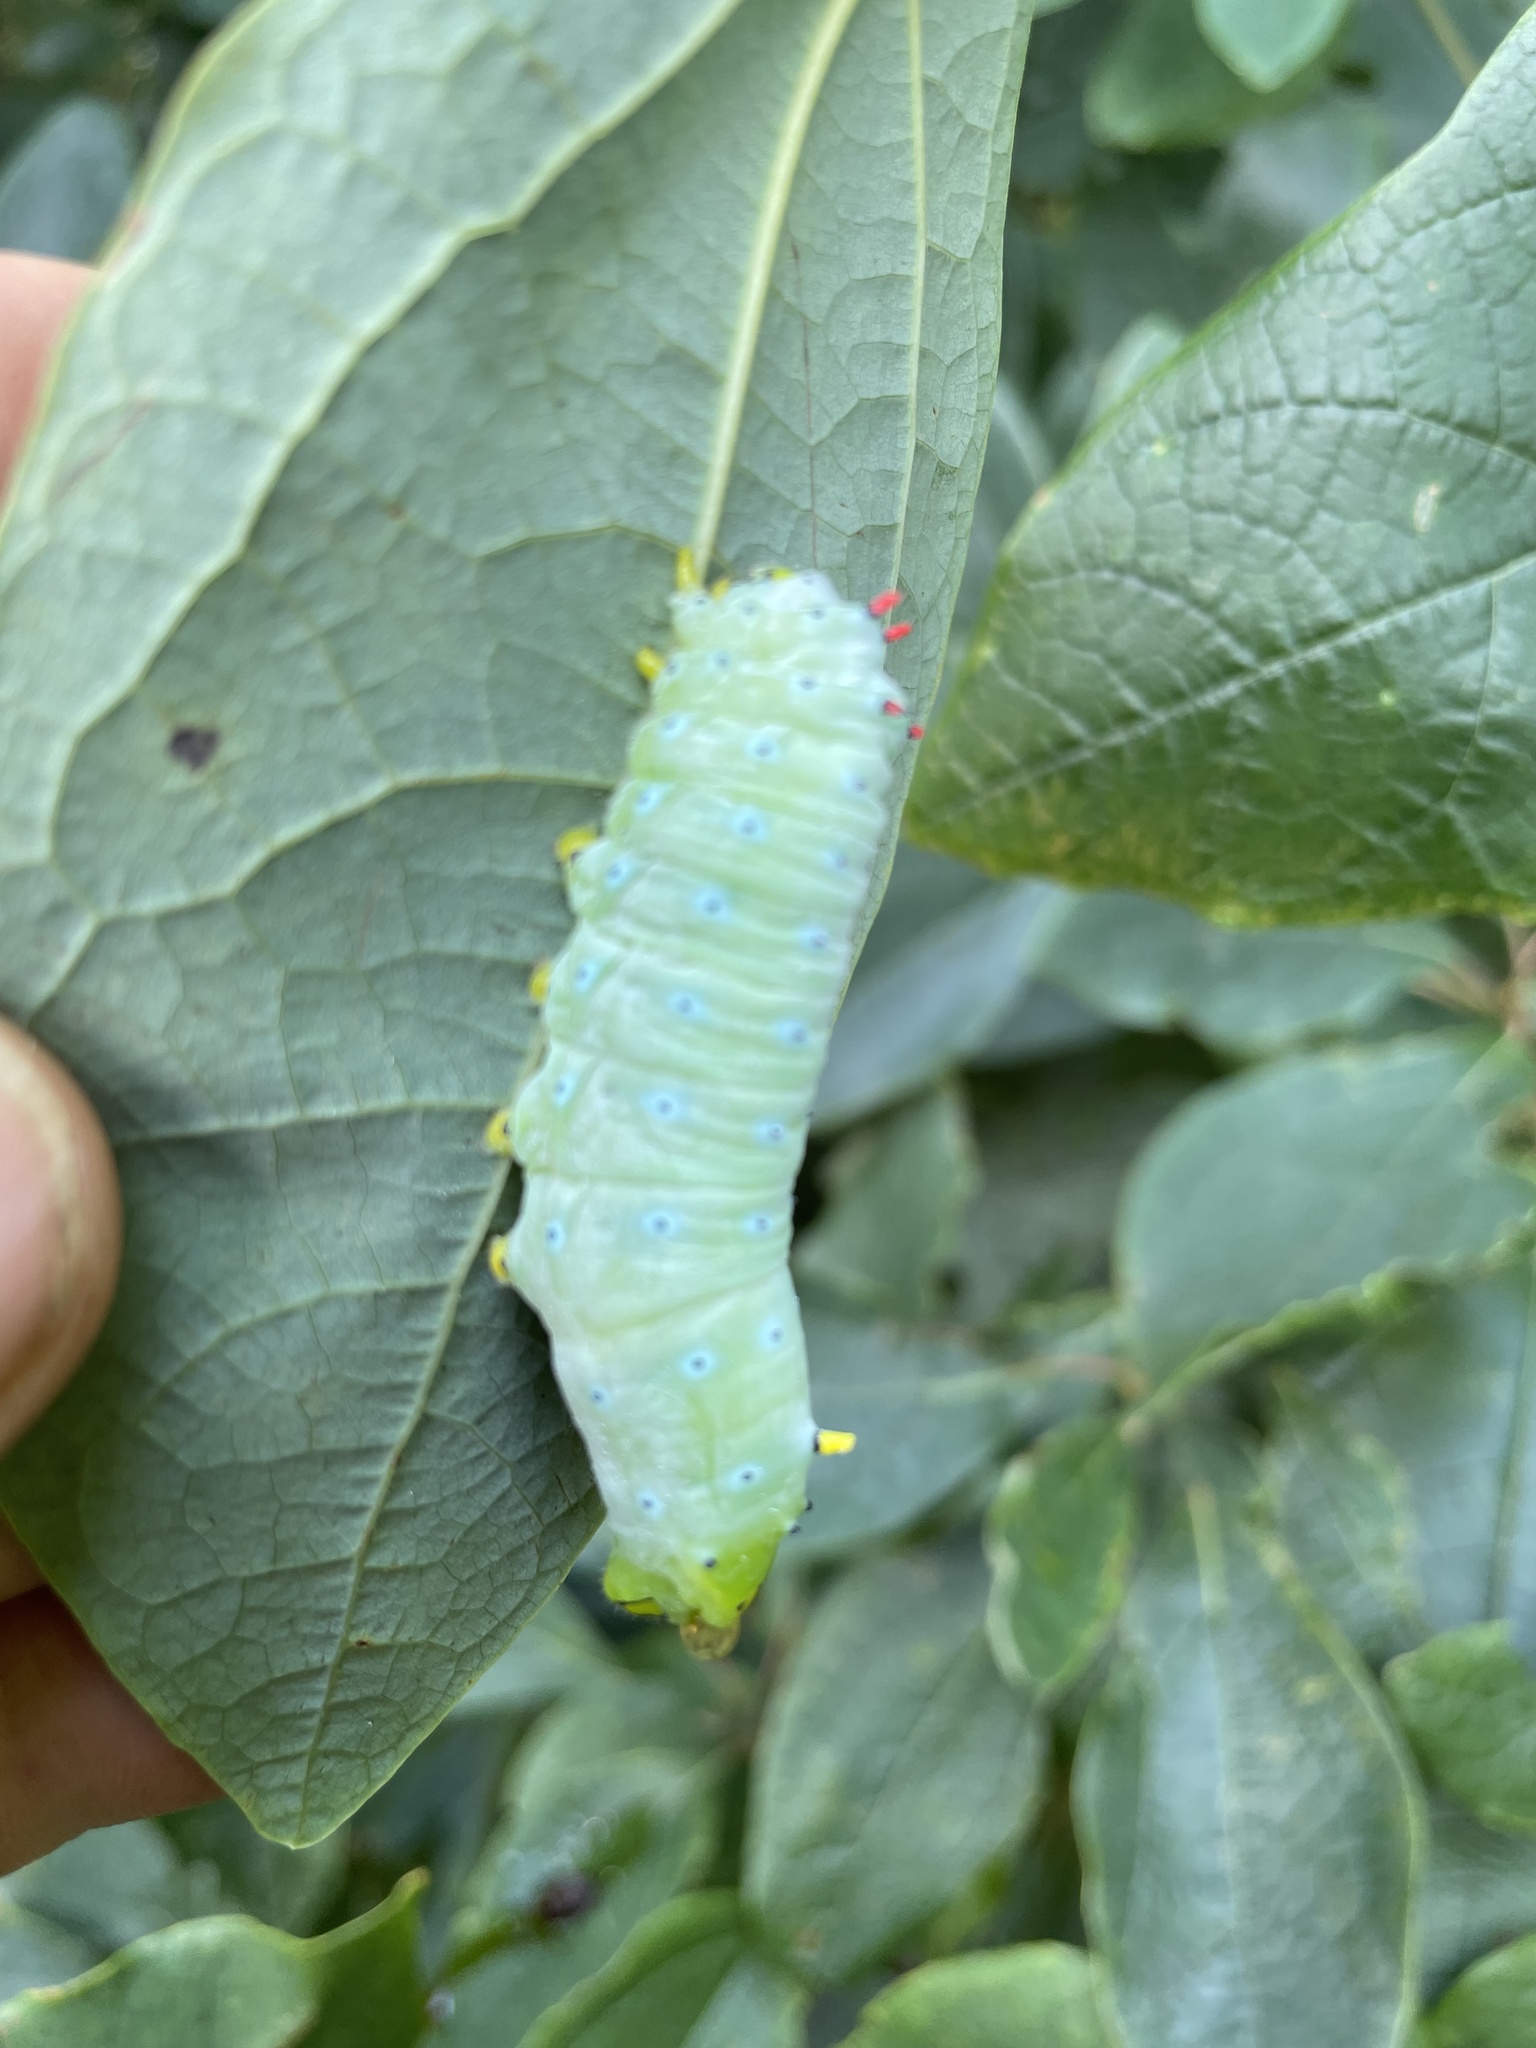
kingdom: Animalia
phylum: Arthropoda
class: Insecta
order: Lepidoptera
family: Saturniidae
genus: Callosamia
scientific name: Callosamia promethea
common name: Promethea silkmoth
